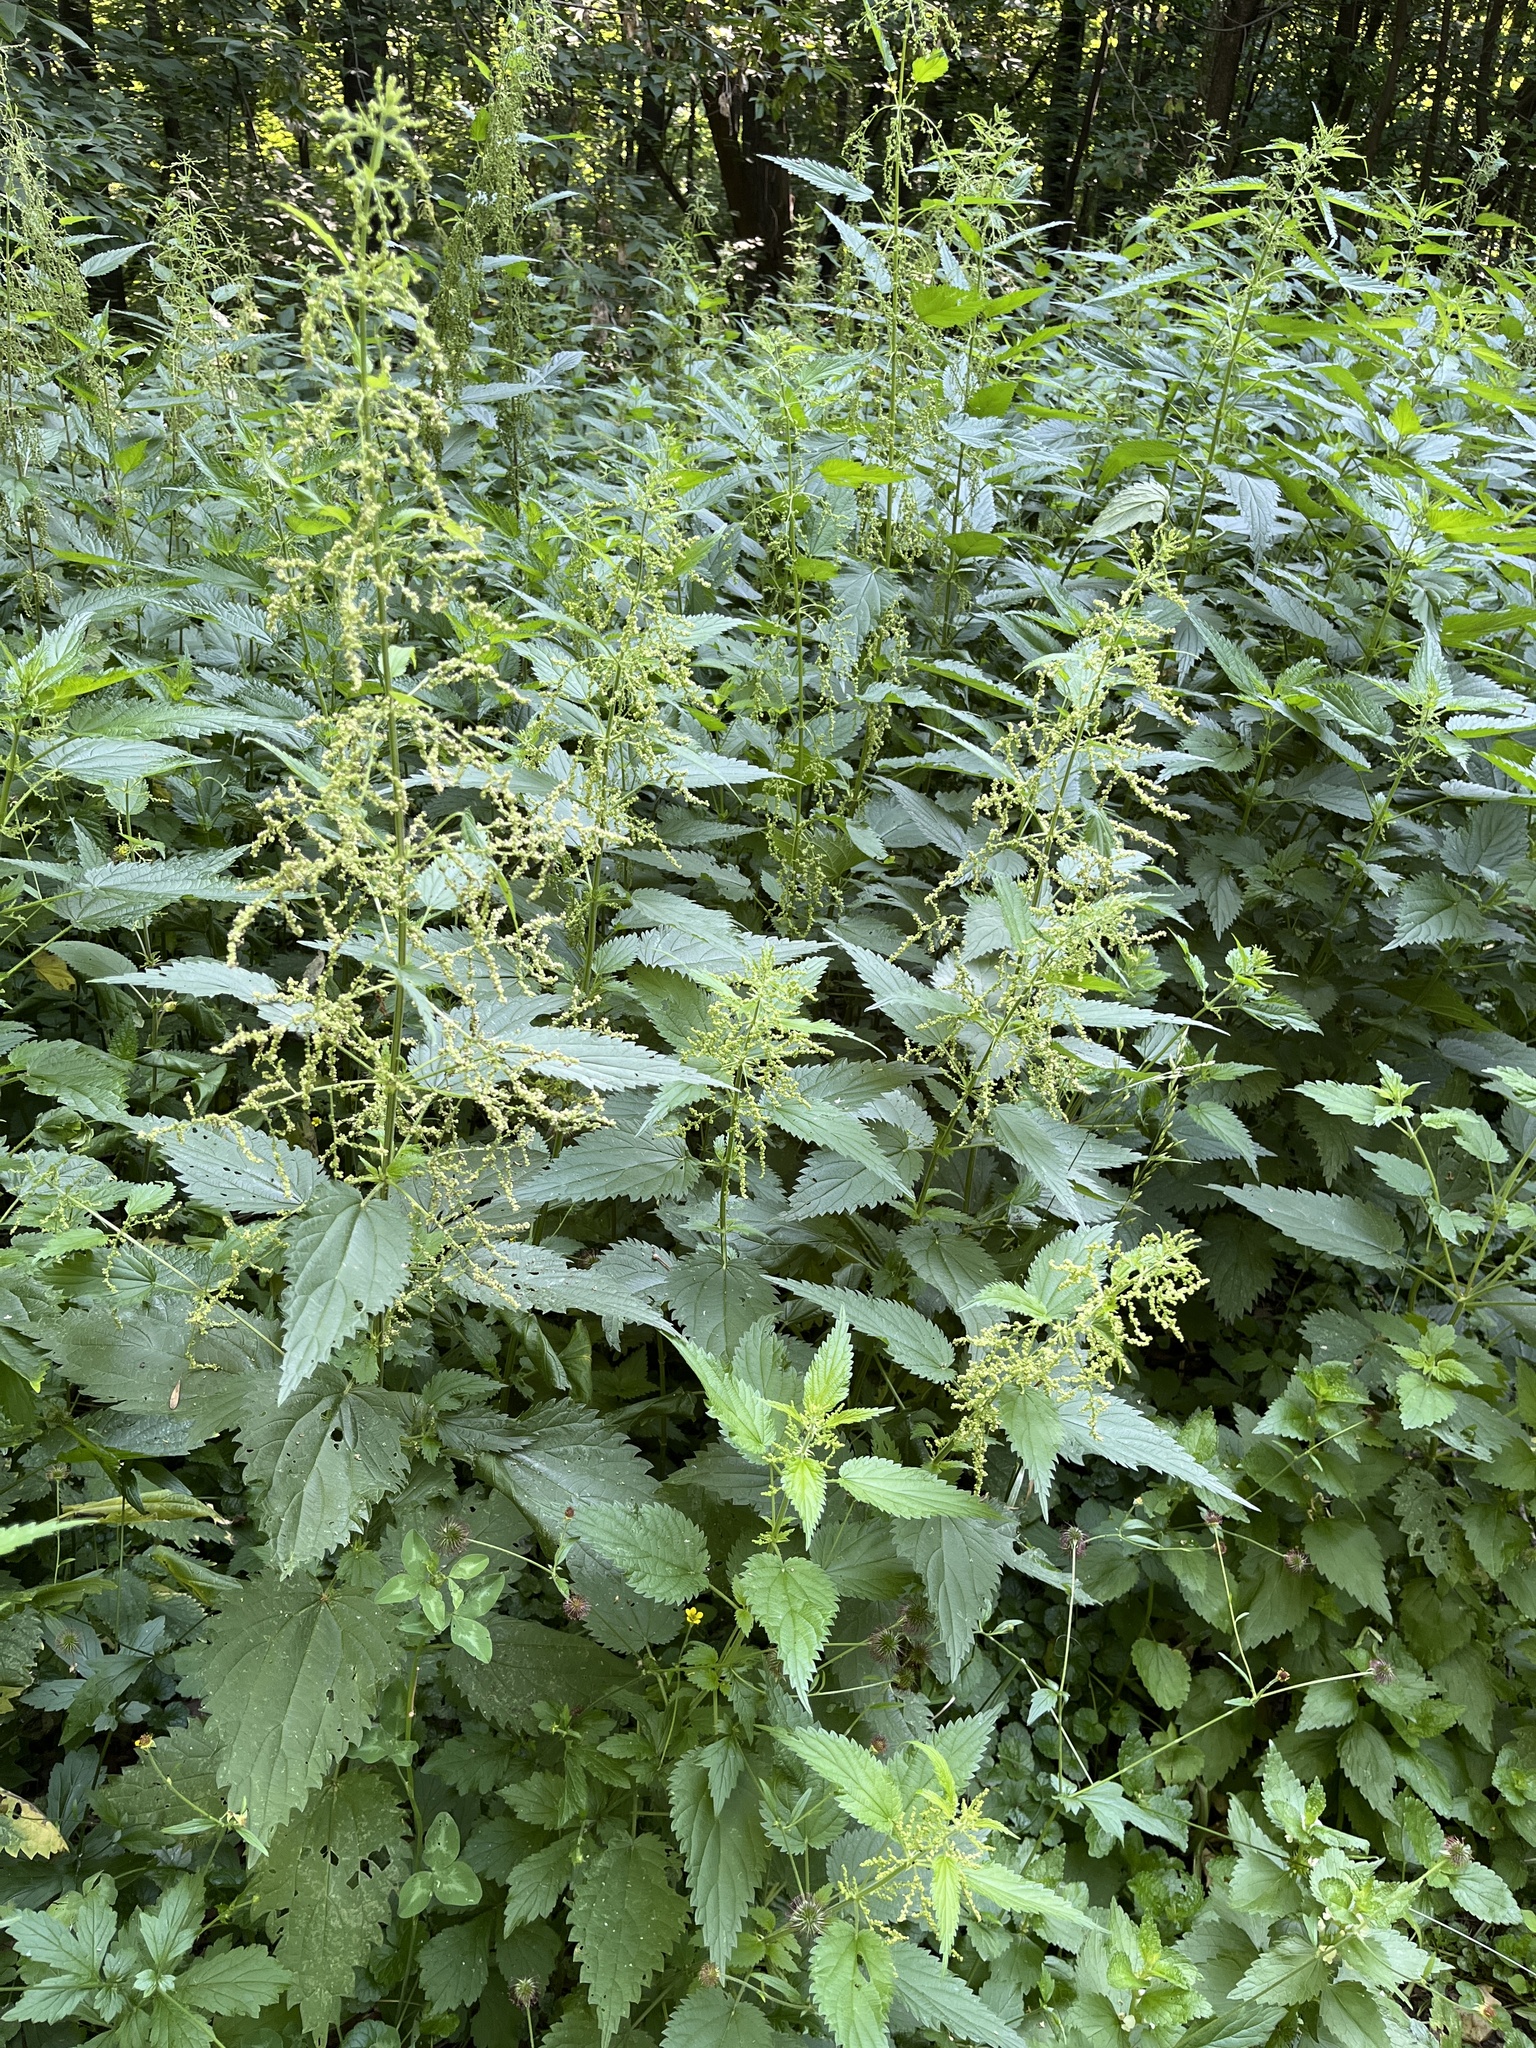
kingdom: Plantae
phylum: Tracheophyta
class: Magnoliopsida
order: Rosales
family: Urticaceae
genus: Urtica
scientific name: Urtica dioica
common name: Common nettle
